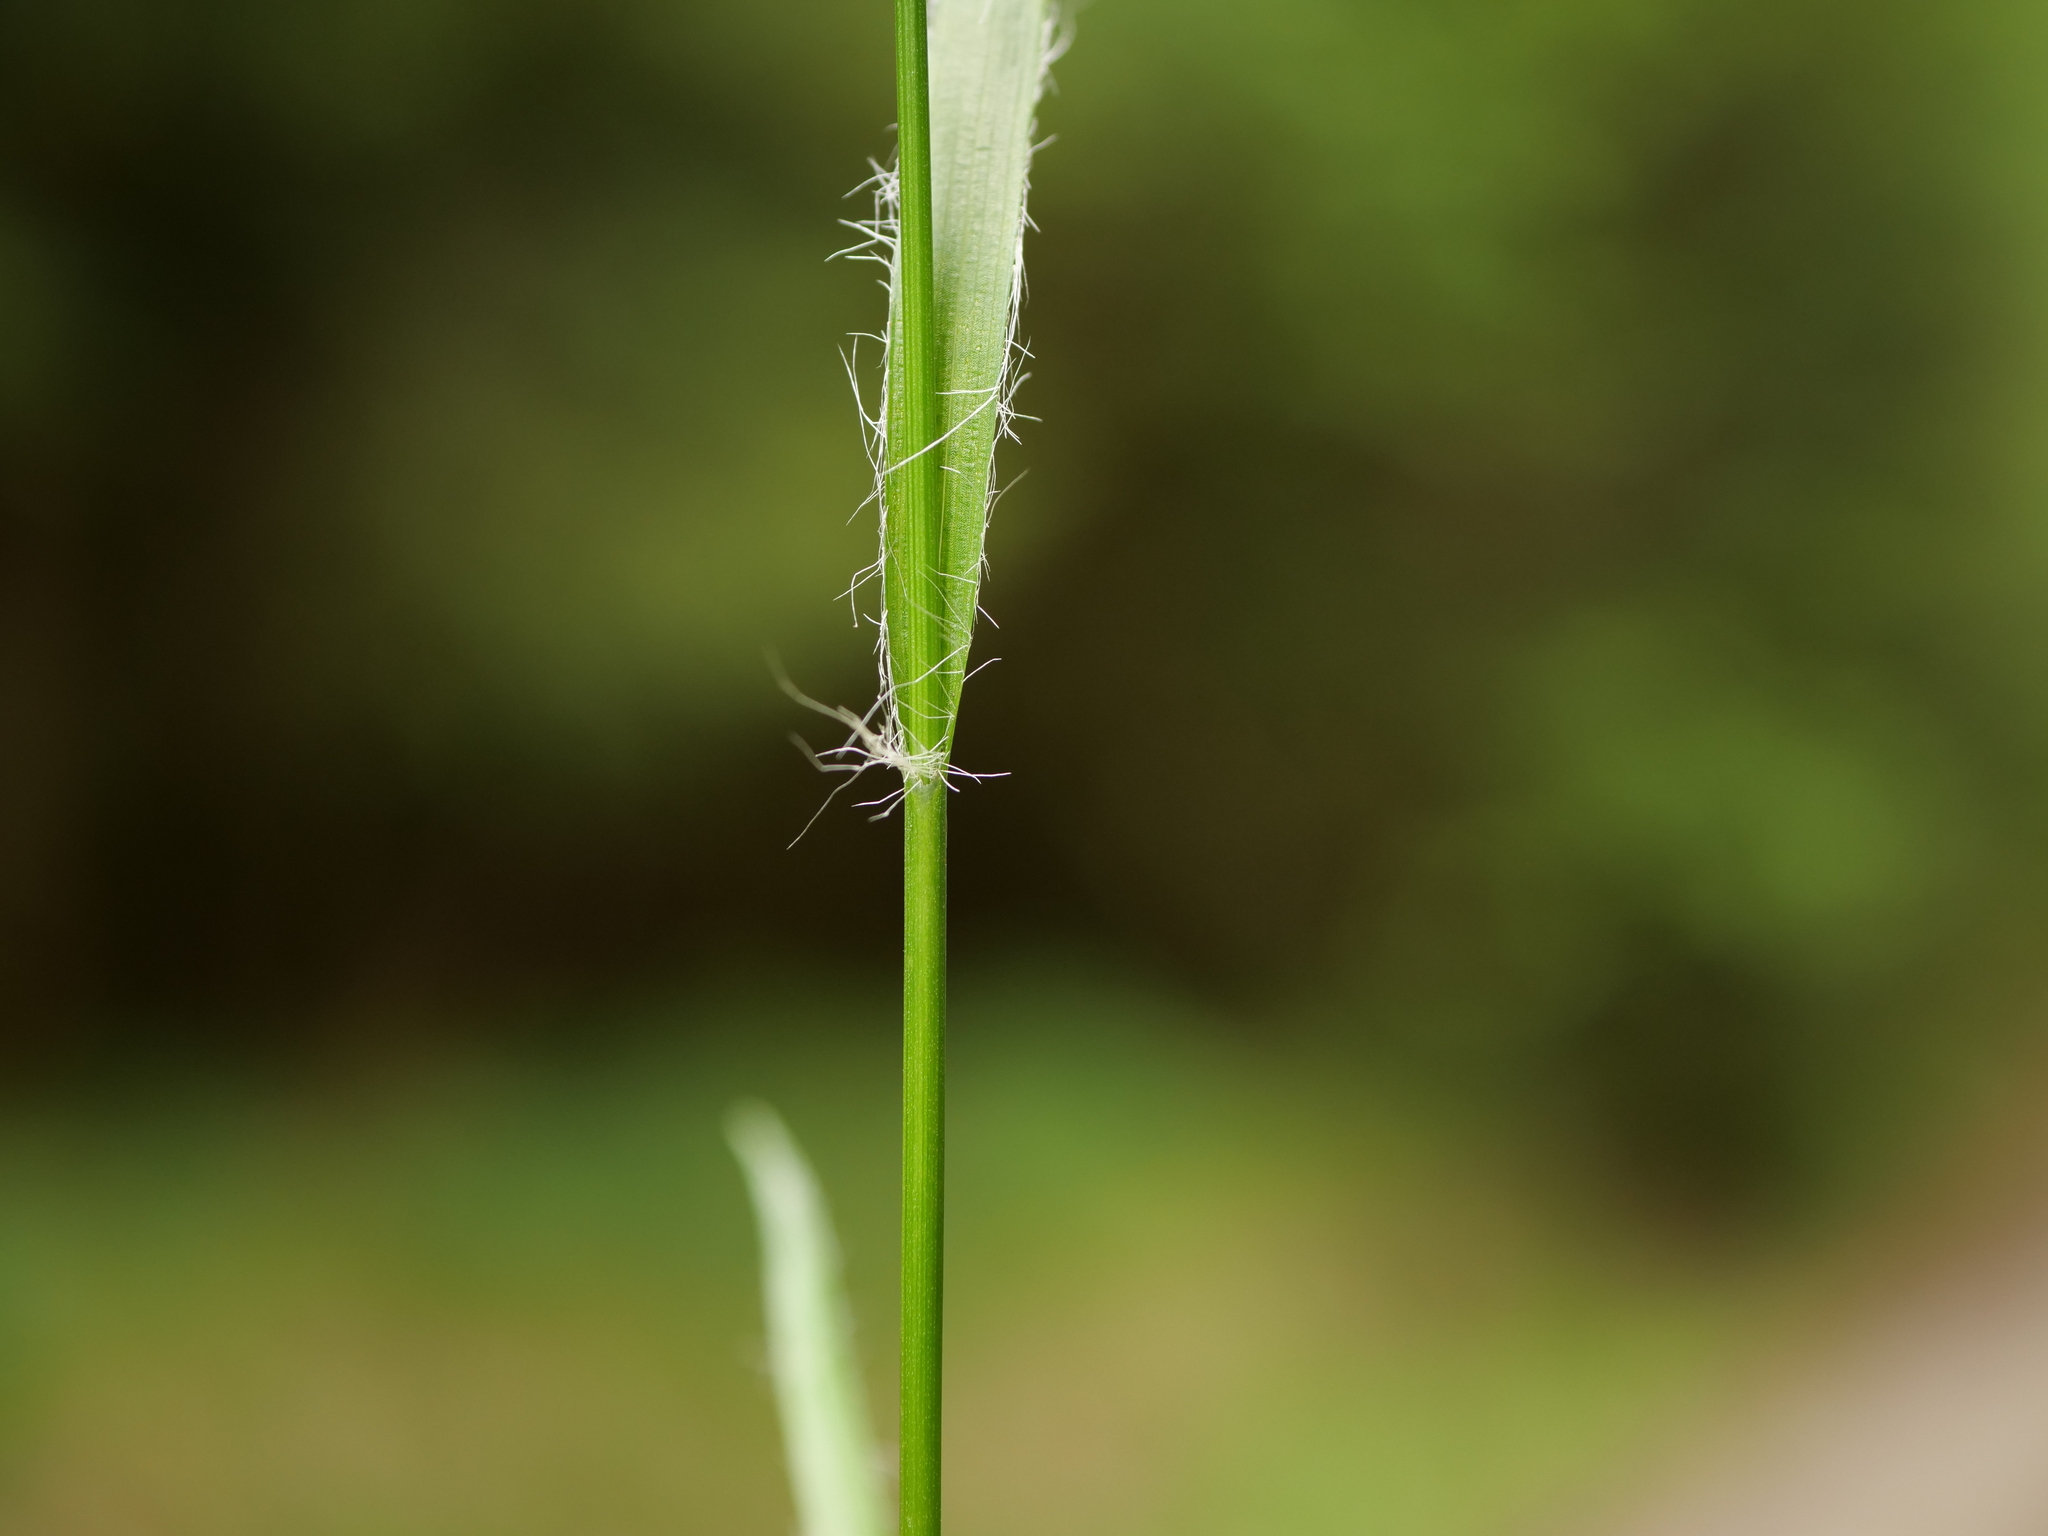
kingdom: Plantae
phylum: Tracheophyta
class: Liliopsida
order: Poales
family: Juncaceae
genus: Luzula
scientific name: Luzula campestris
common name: Field wood-rush
